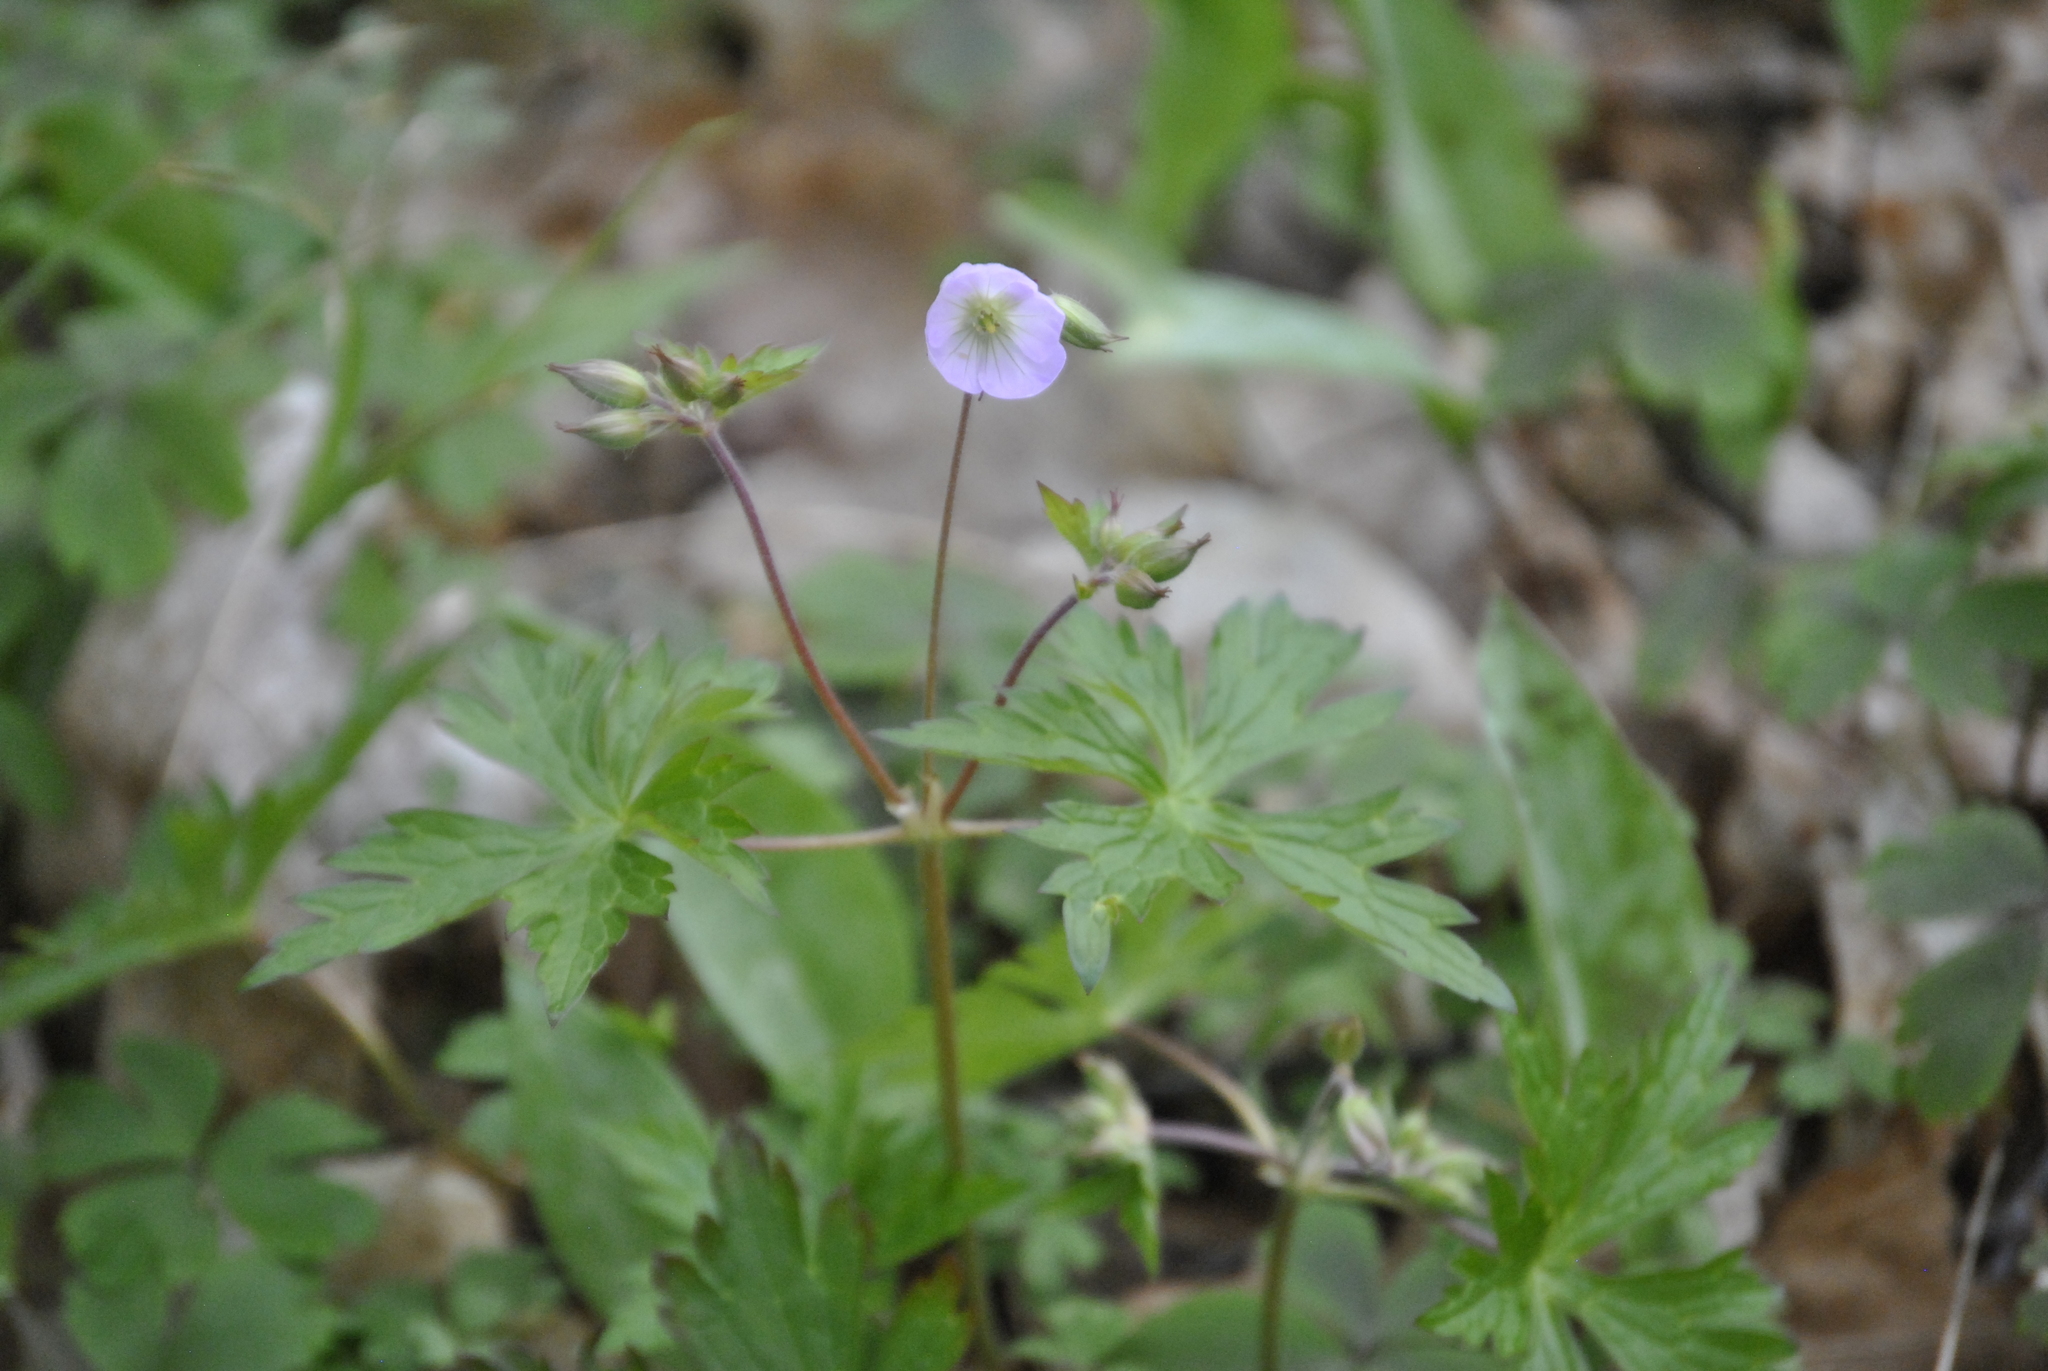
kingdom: Plantae
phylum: Tracheophyta
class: Magnoliopsida
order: Geraniales
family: Geraniaceae
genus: Geranium
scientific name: Geranium maculatum
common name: Spotted geranium
